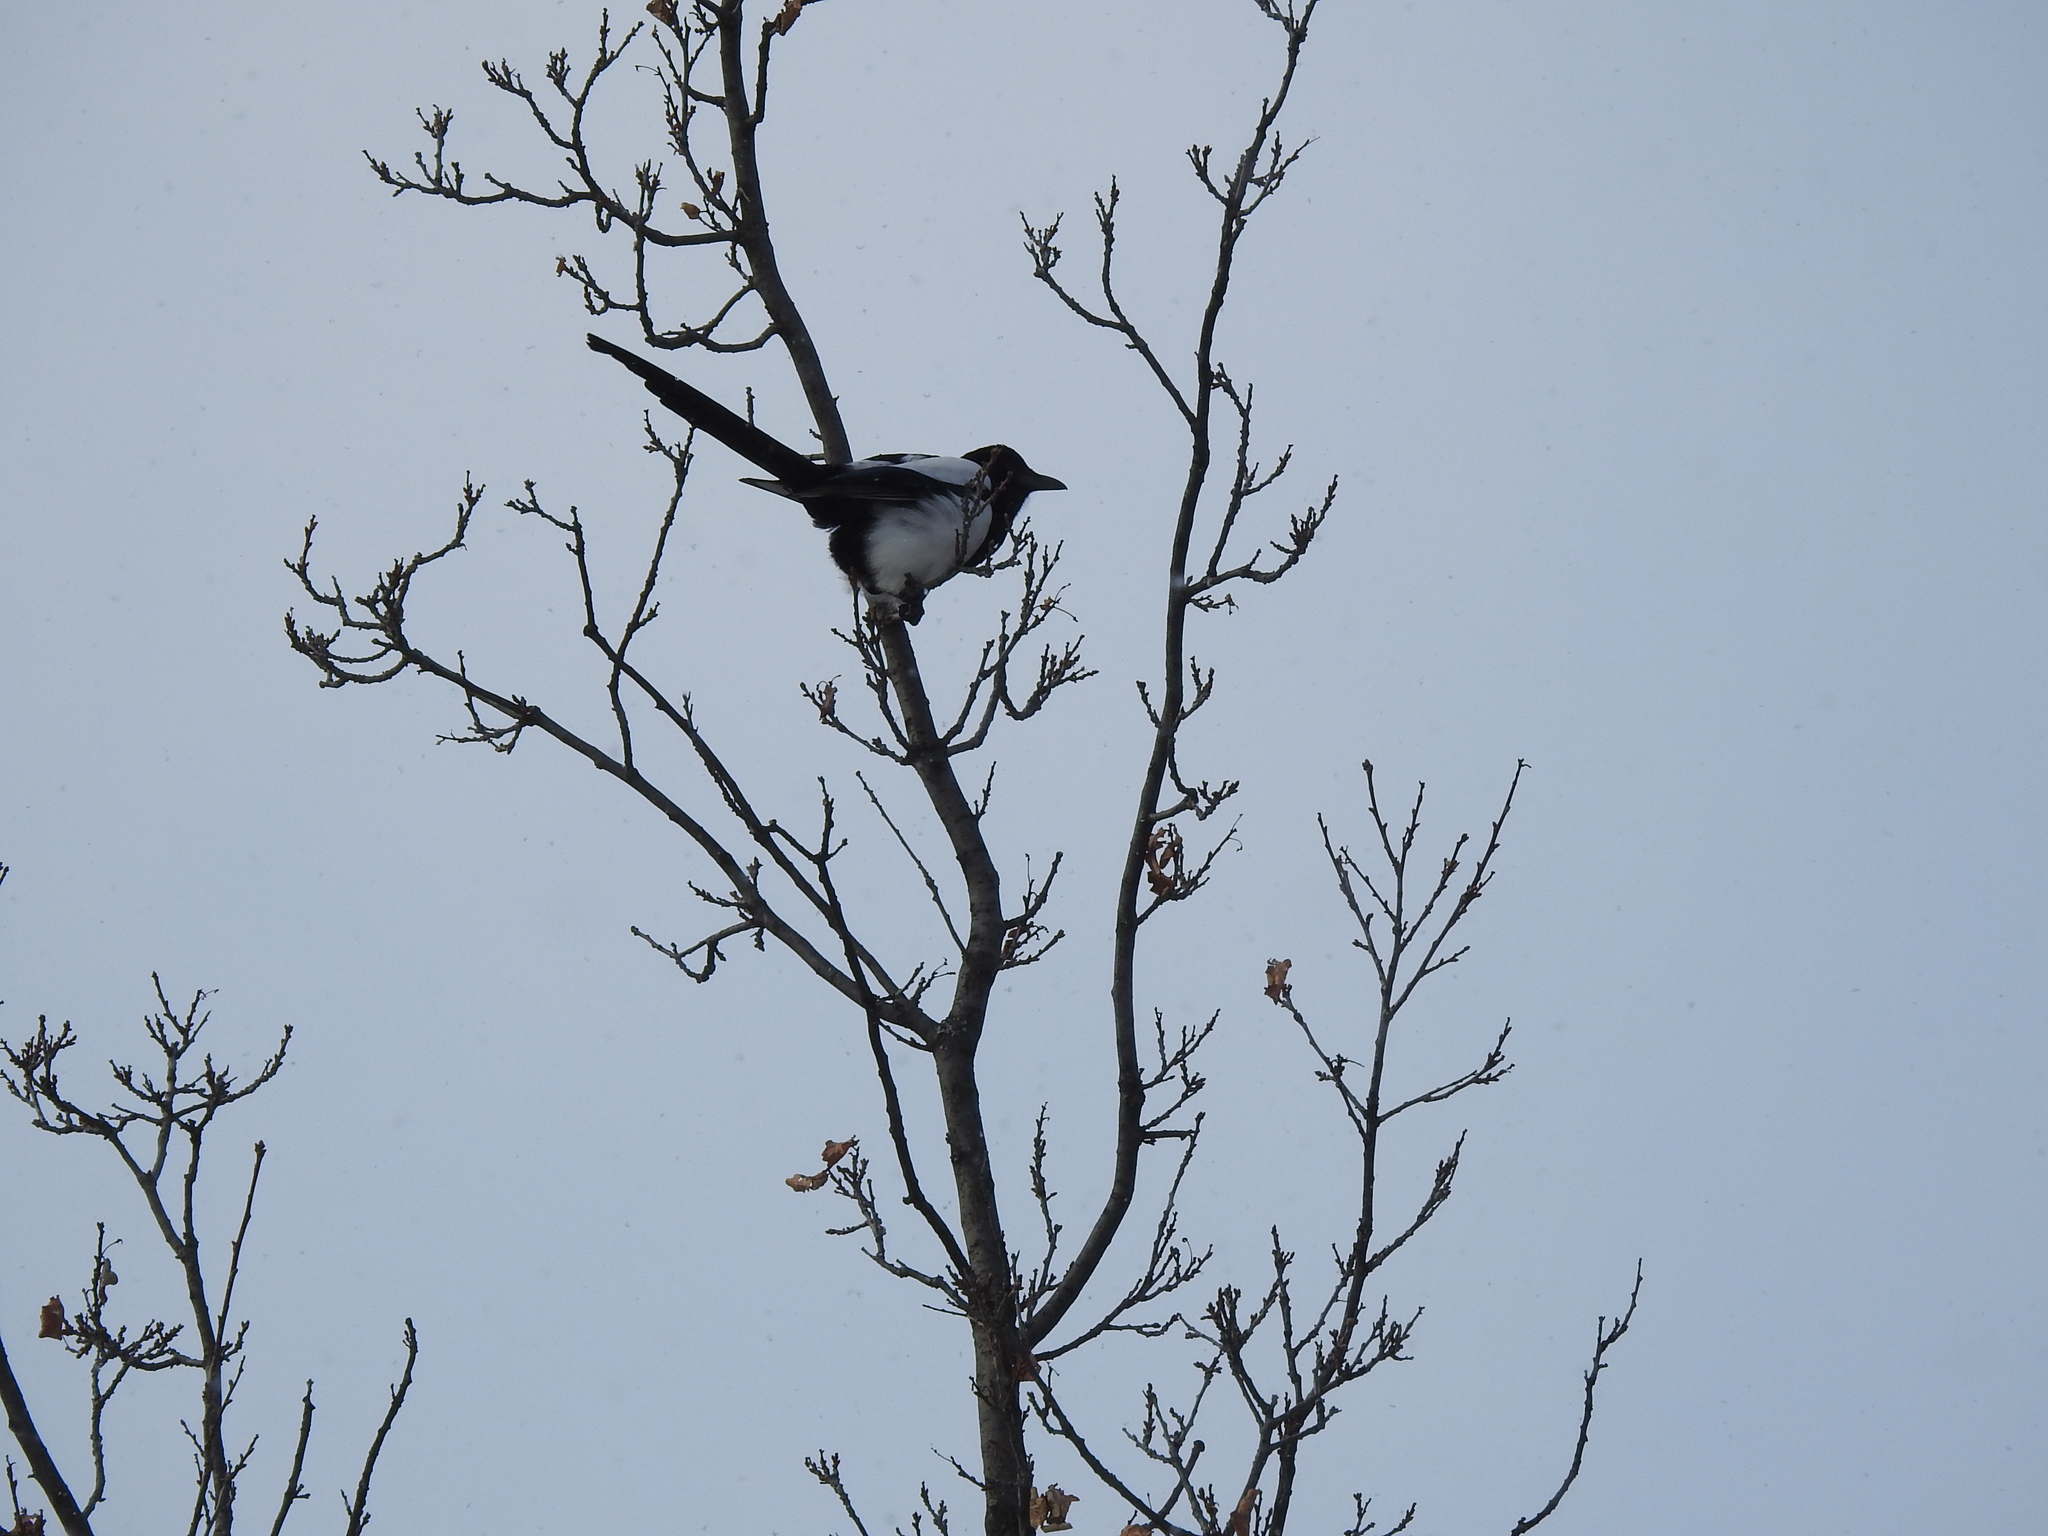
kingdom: Animalia
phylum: Chordata
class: Aves
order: Passeriformes
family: Corvidae
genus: Pica
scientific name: Pica pica
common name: Eurasian magpie
